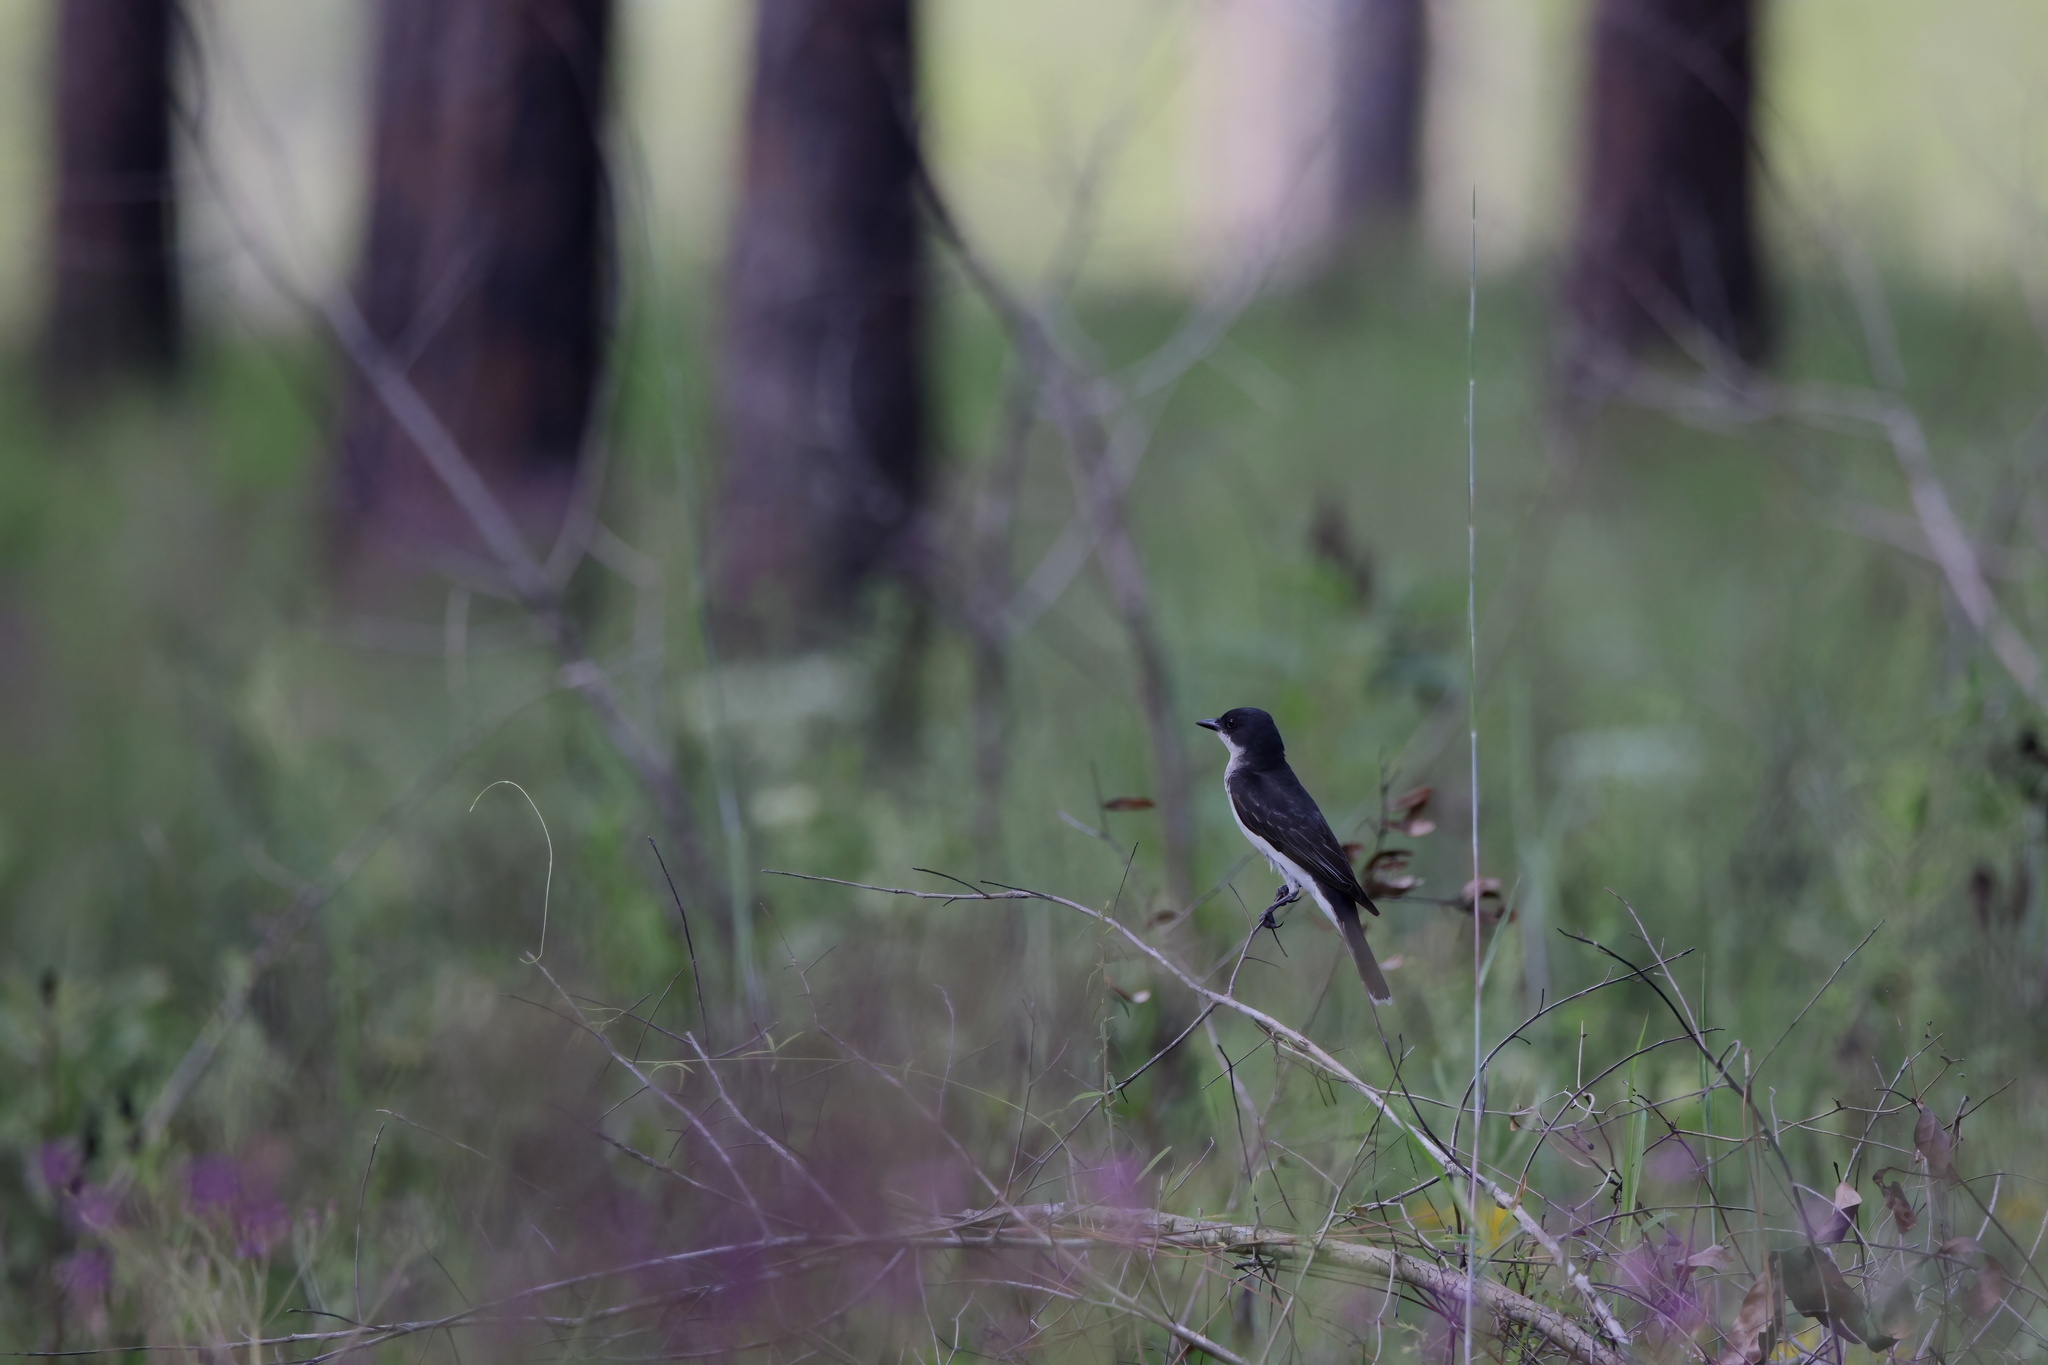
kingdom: Animalia
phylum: Chordata
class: Aves
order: Passeriformes
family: Tyrannidae
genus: Tyrannus
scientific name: Tyrannus tyrannus
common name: Eastern kingbird
